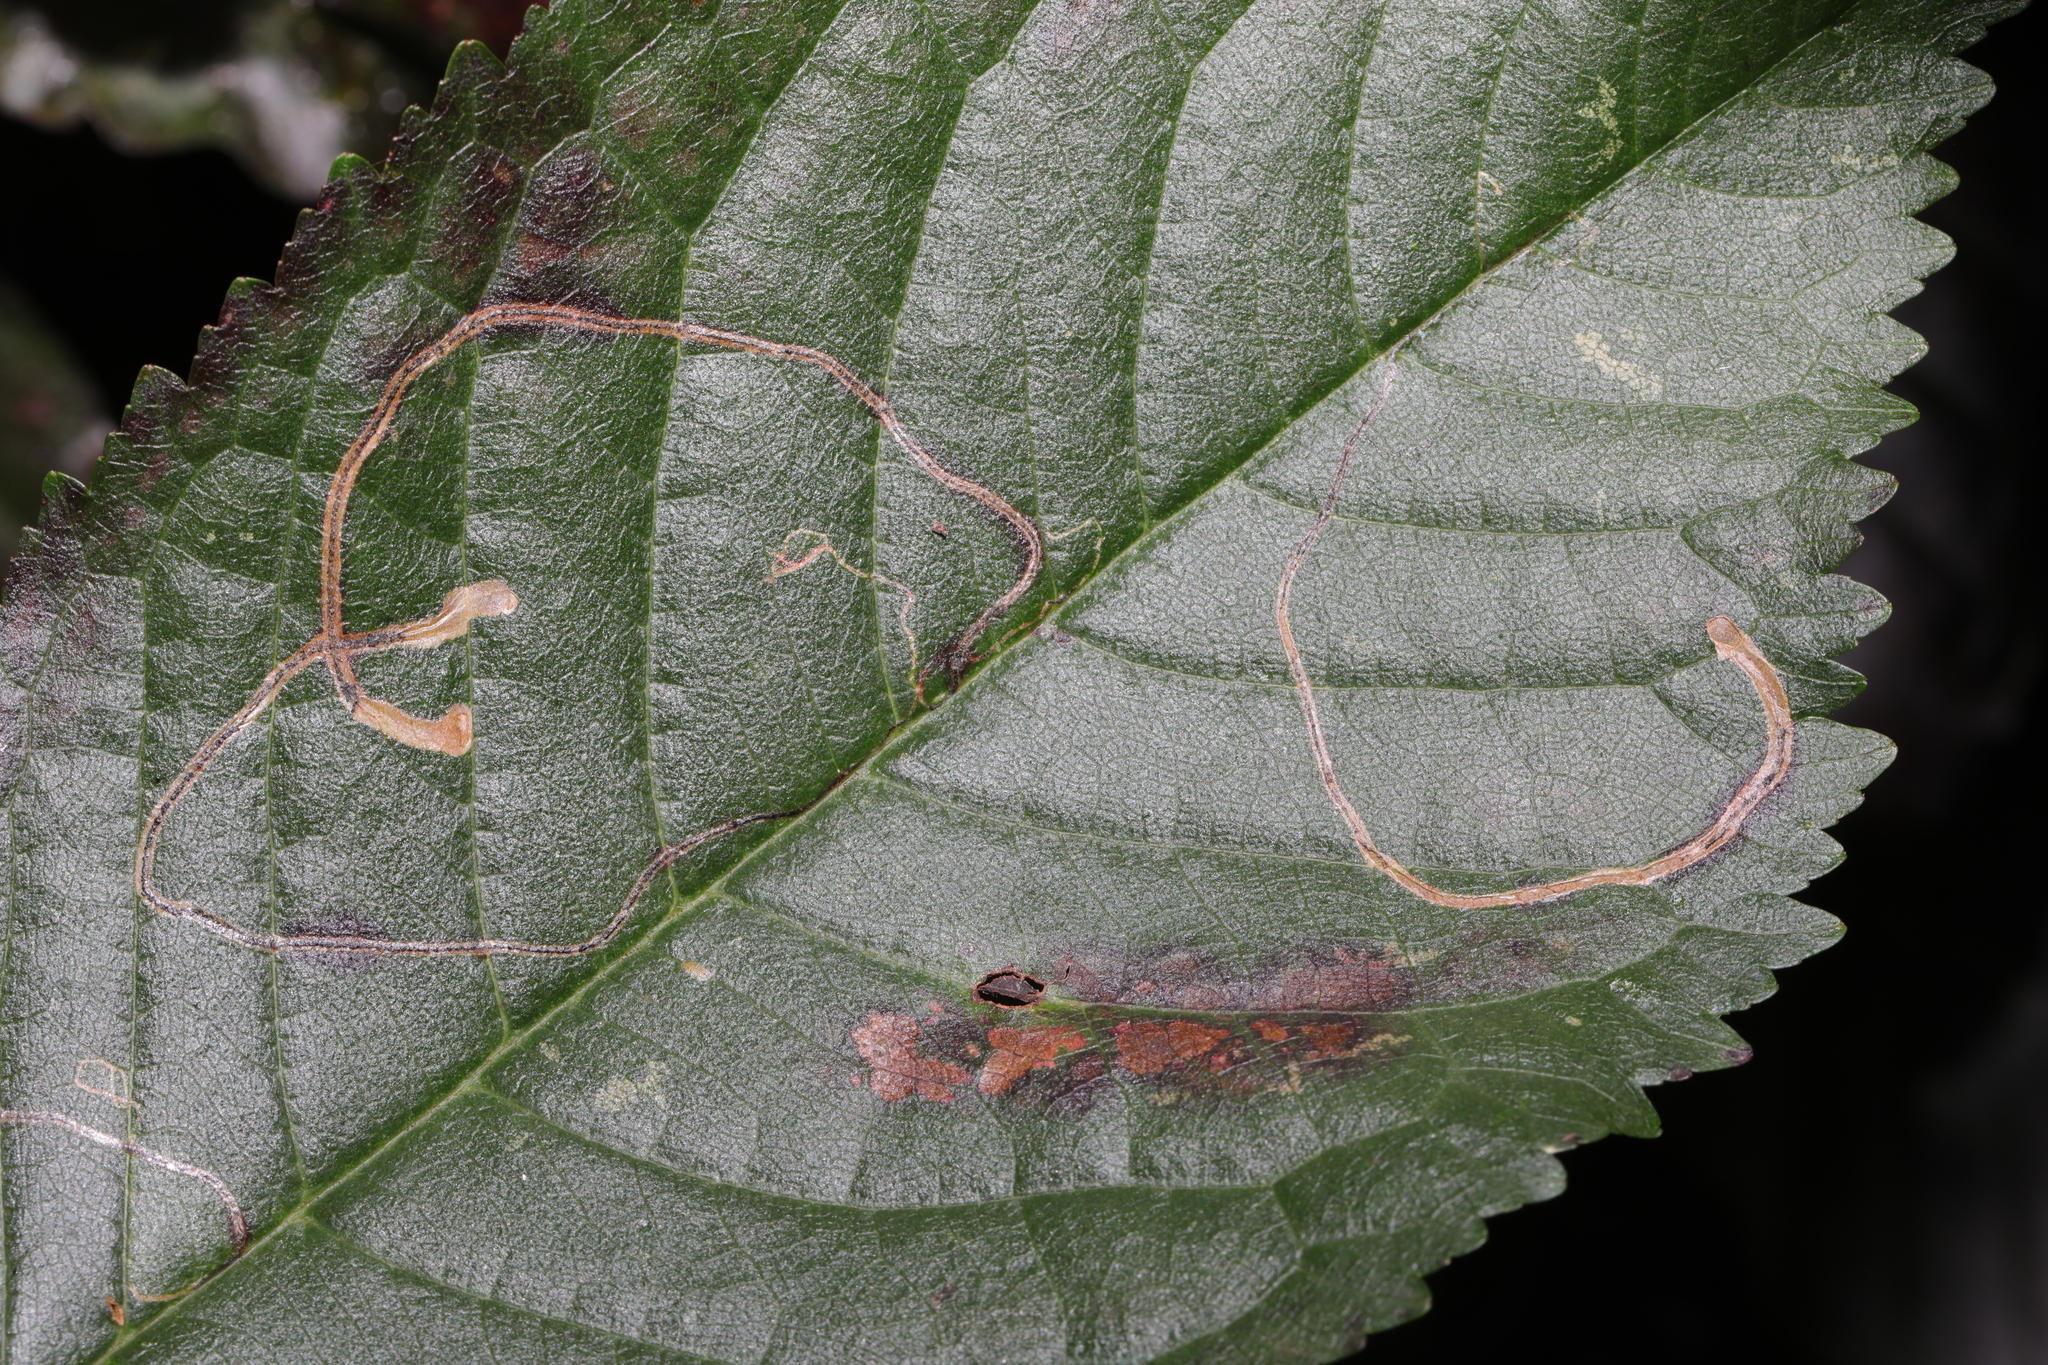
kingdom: Animalia
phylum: Arthropoda
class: Insecta
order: Lepidoptera
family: Lyonetiidae
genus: Lyonetia
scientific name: Lyonetia clerkella
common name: Apple leaf miner
